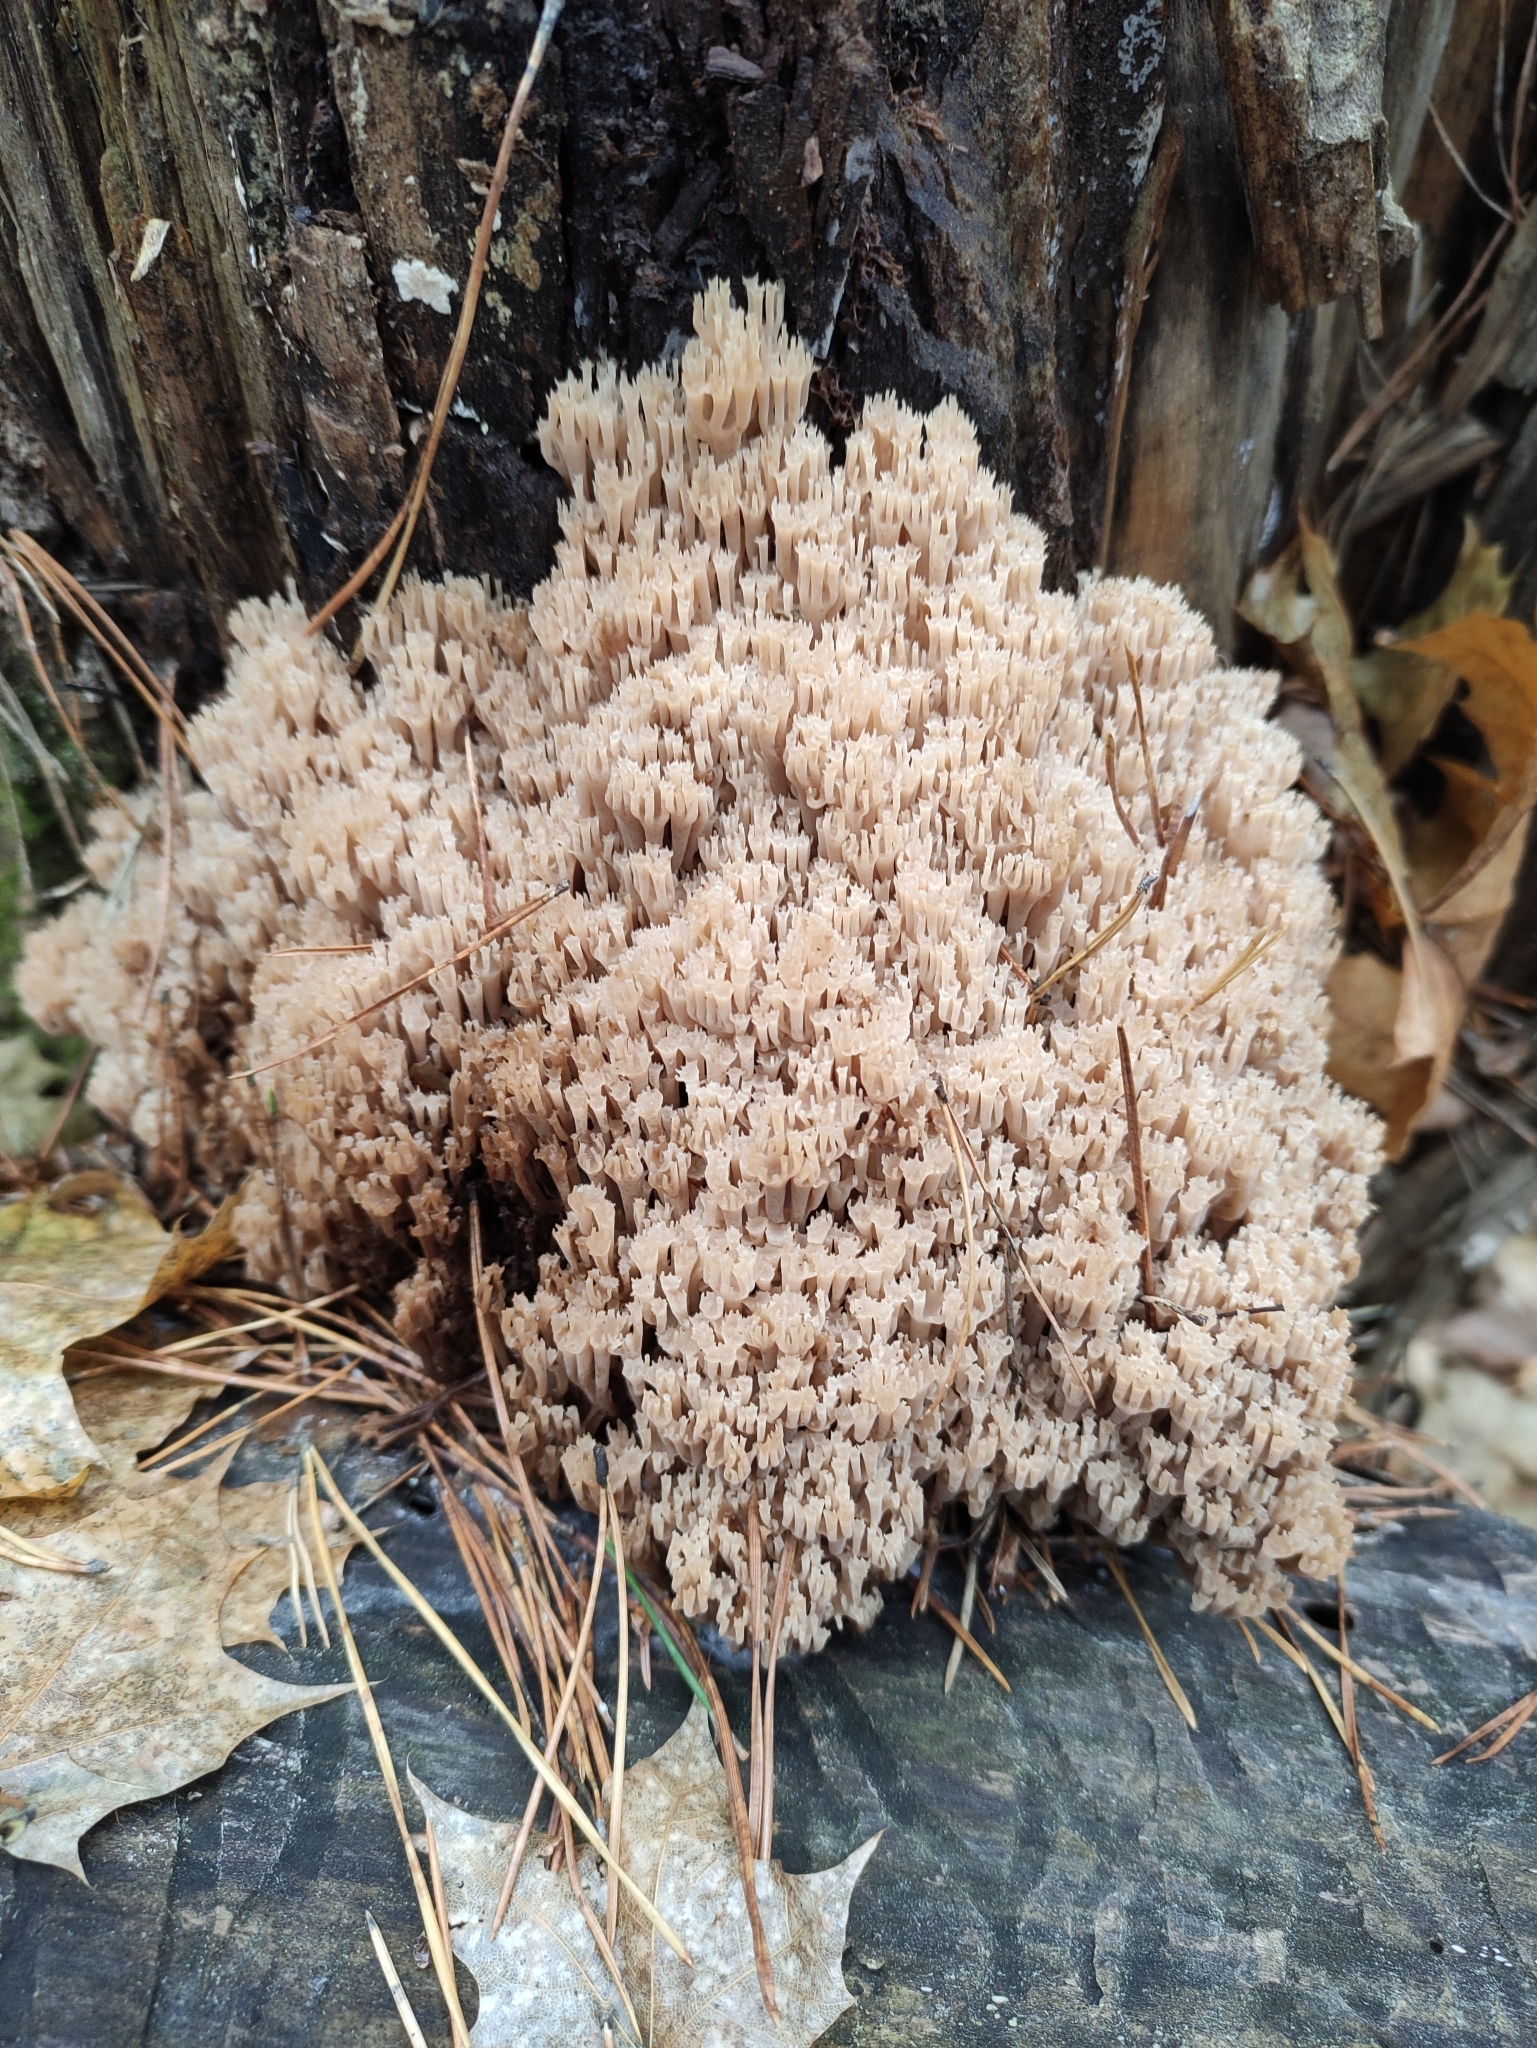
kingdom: Fungi
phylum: Basidiomycota
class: Agaricomycetes
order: Russulales
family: Auriscalpiaceae
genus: Artomyces
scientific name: Artomyces microsporus
